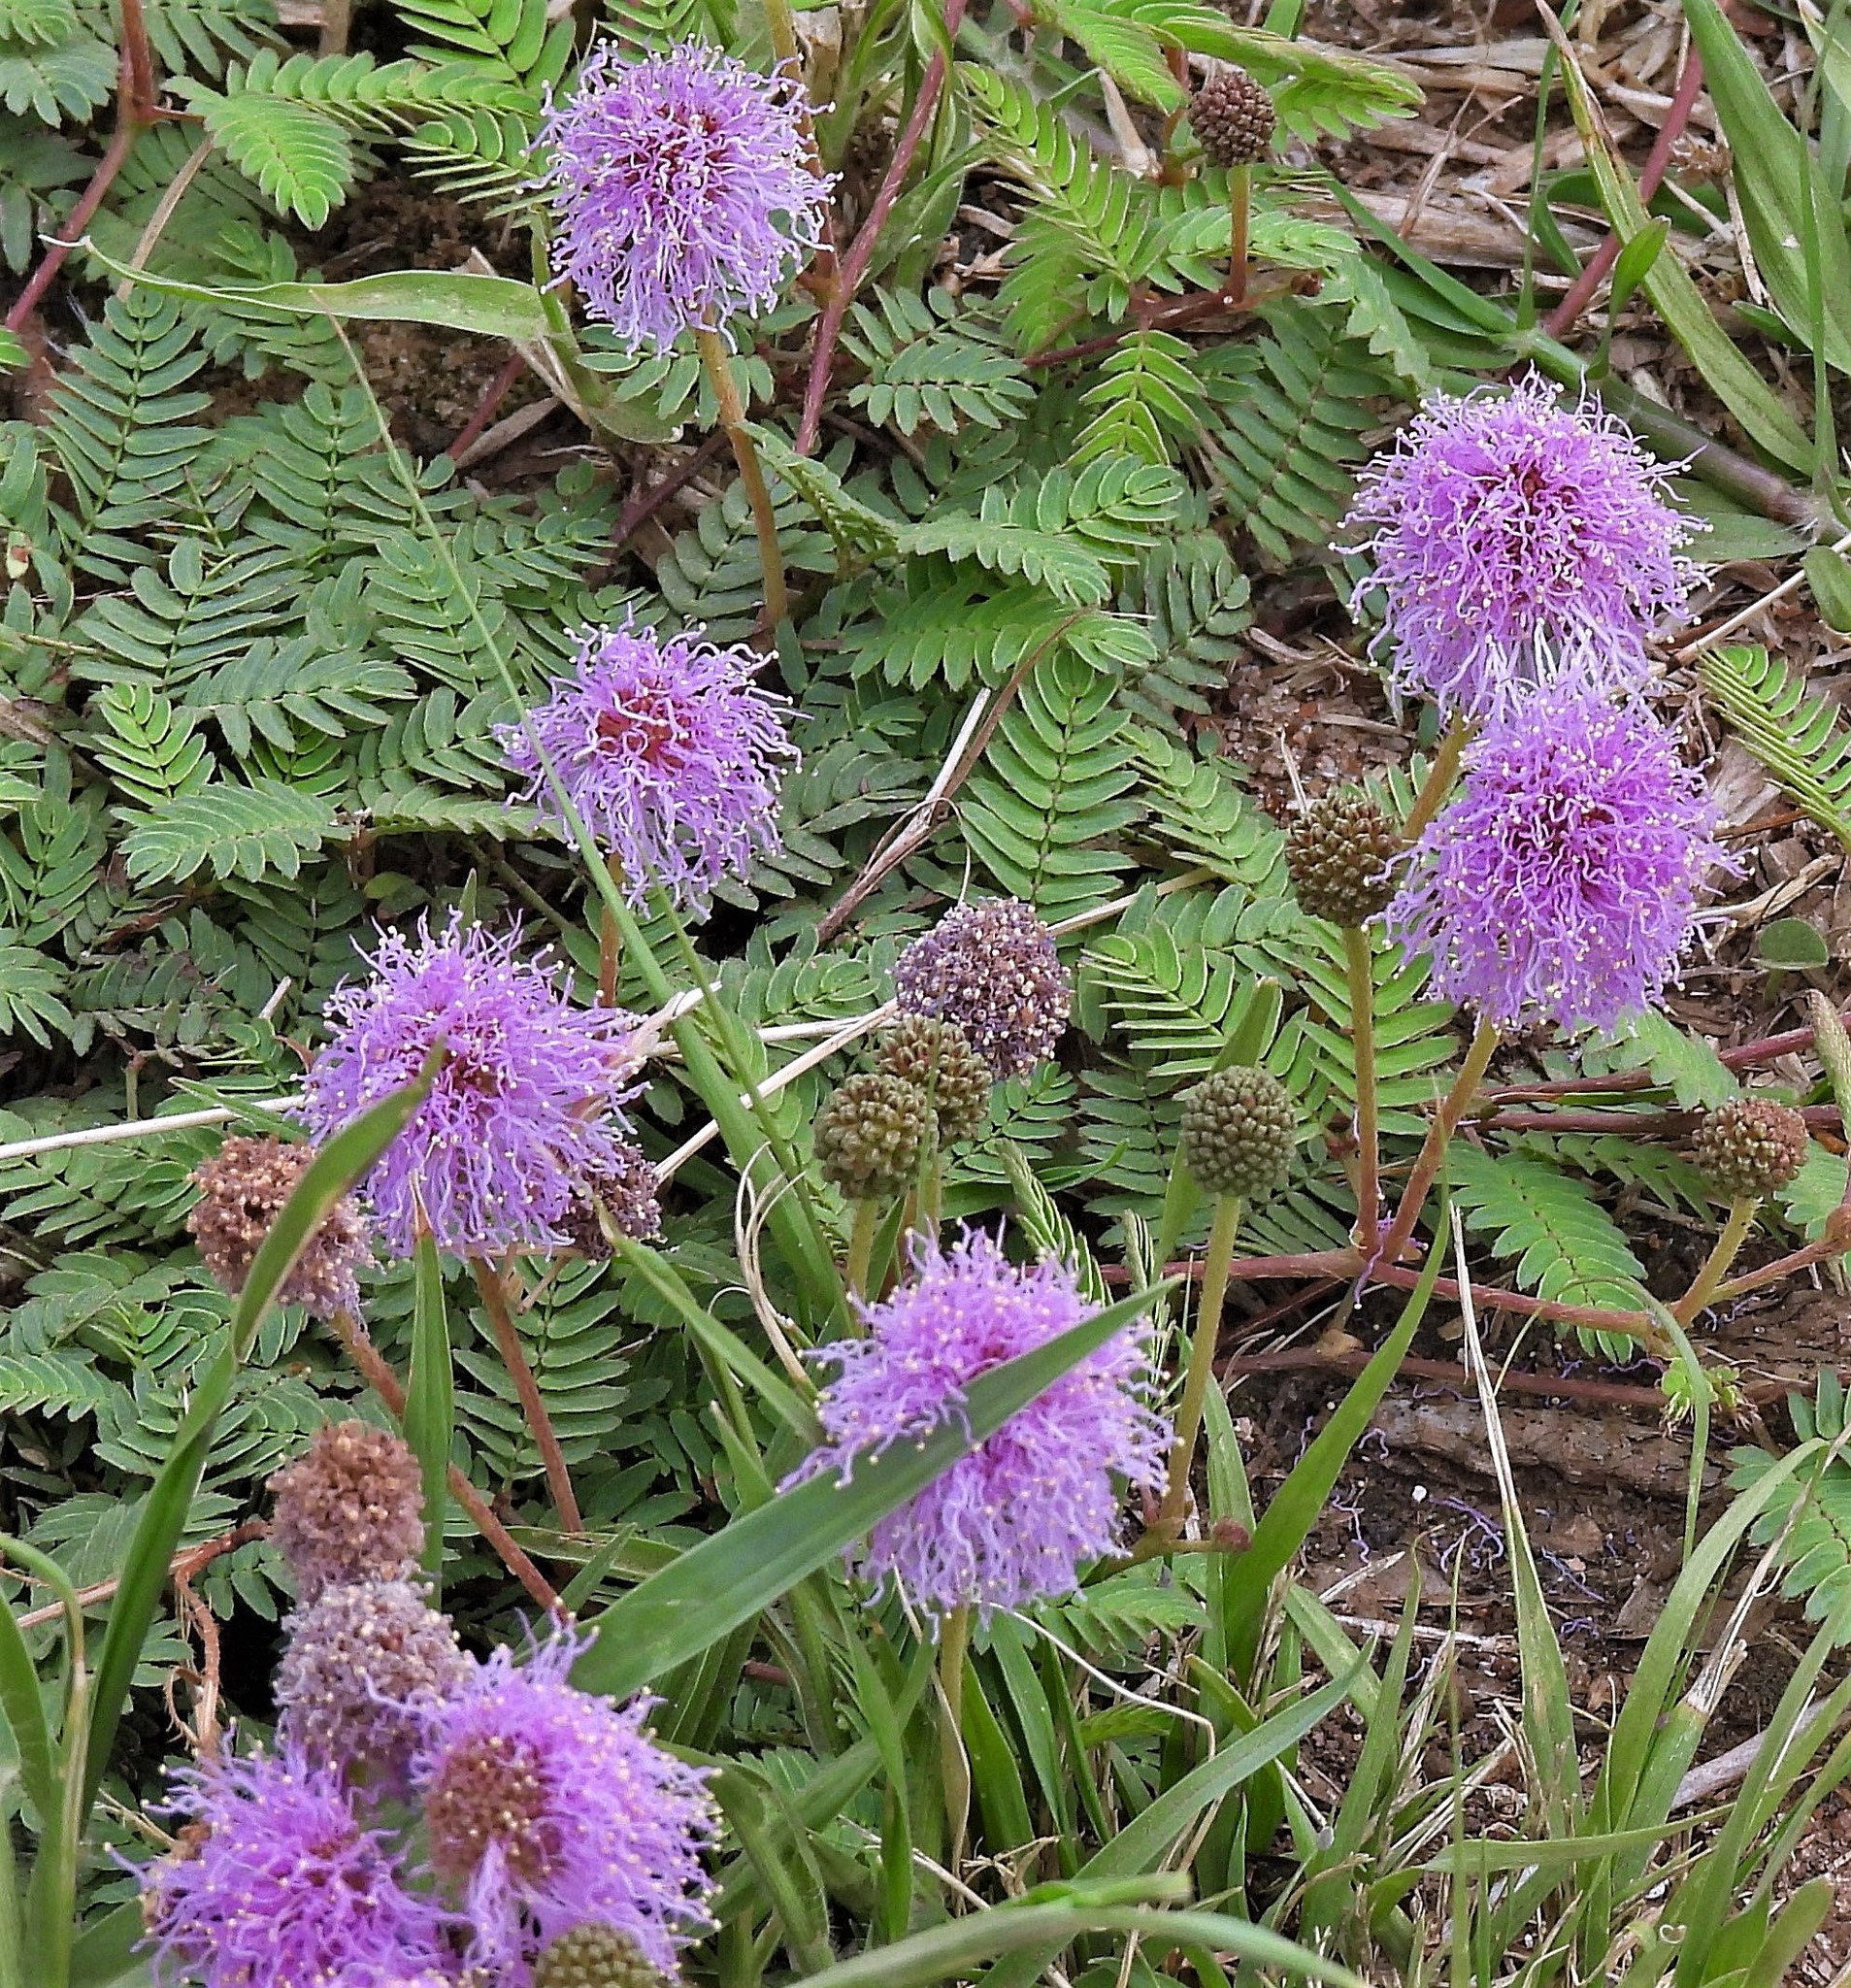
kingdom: Plantae
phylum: Tracheophyta
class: Magnoliopsida
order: Fabales
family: Fabaceae
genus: Mimosa
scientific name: Mimosa balansae
